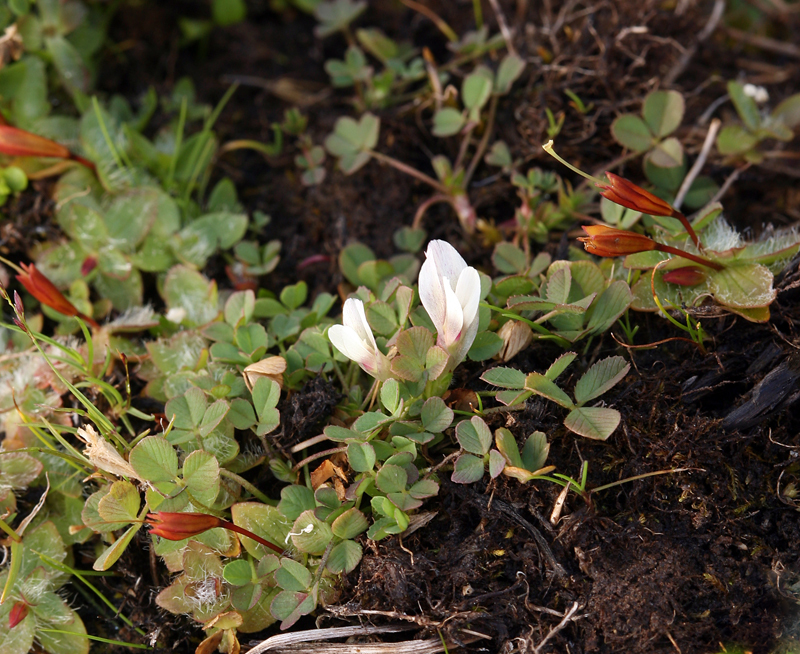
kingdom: Plantae
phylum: Tracheophyta
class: Magnoliopsida
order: Fabales
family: Fabaceae
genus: Trifolium
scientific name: Trifolium monanthum
